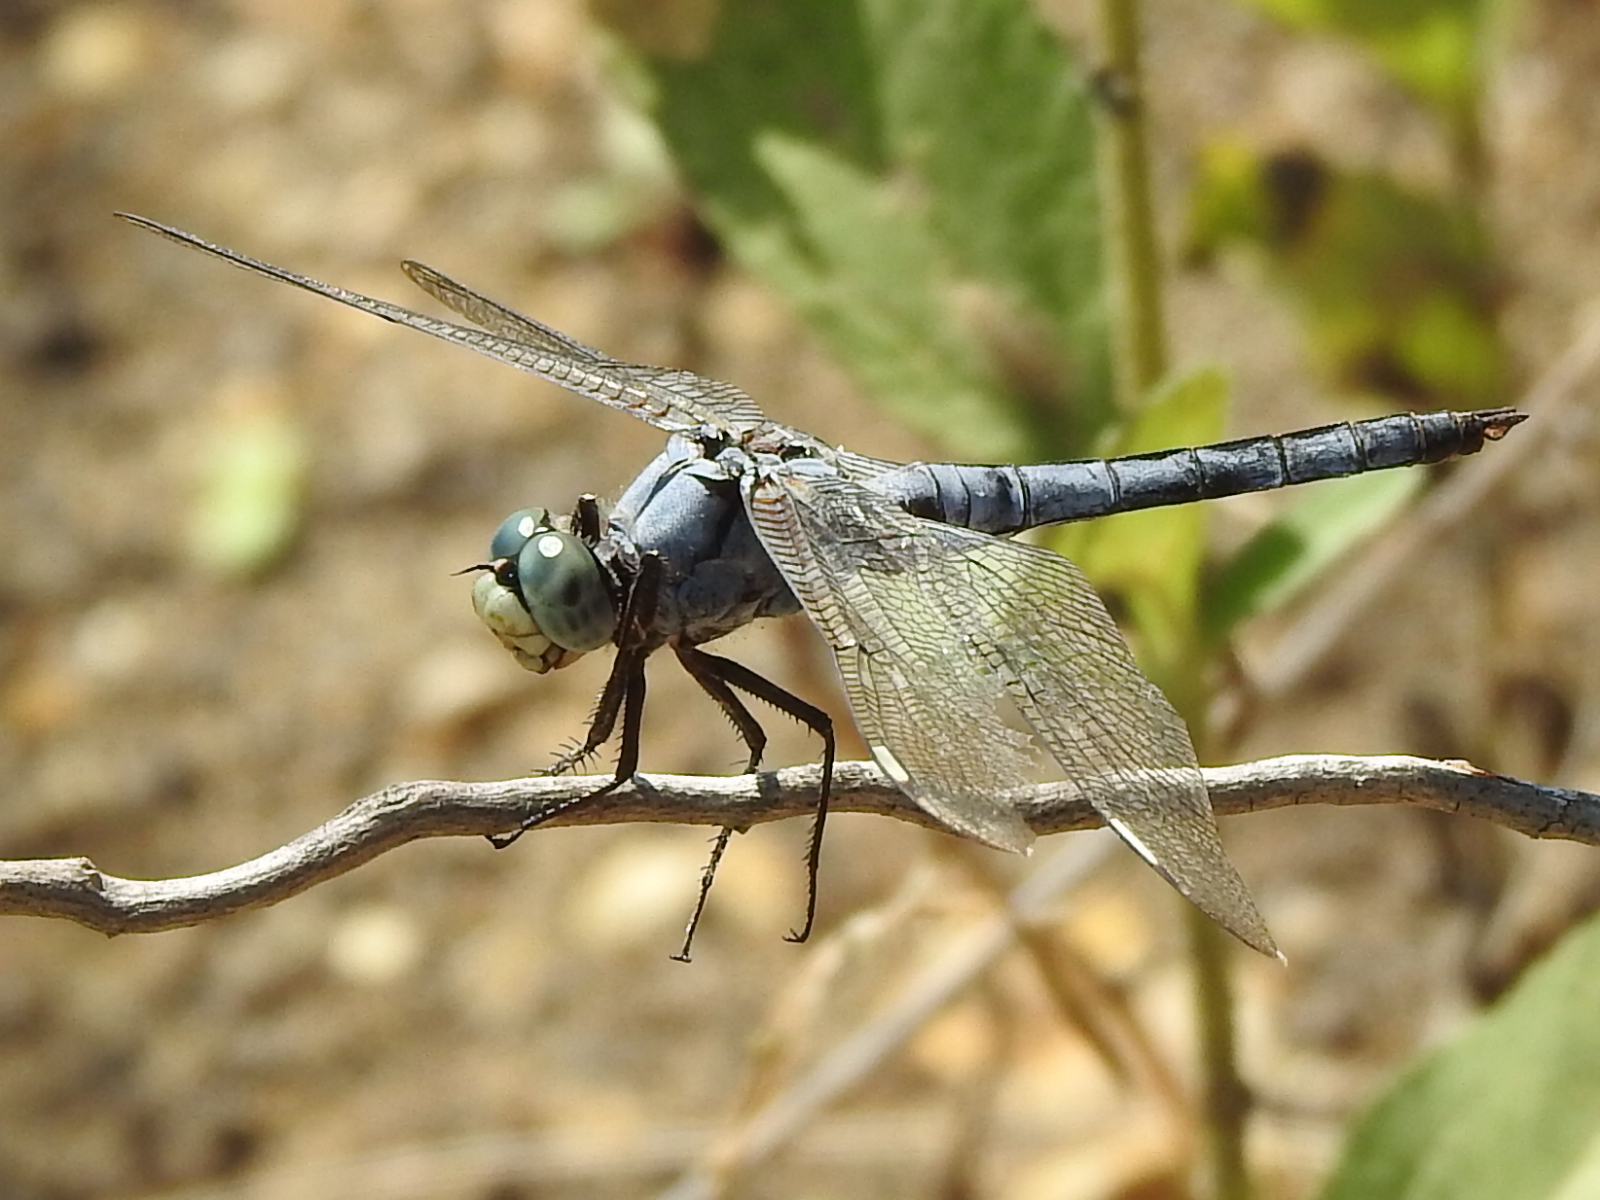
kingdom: Animalia
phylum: Arthropoda
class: Insecta
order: Odonata
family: Libellulidae
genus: Libellula
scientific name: Libellula comanche
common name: Comanche skimmer
